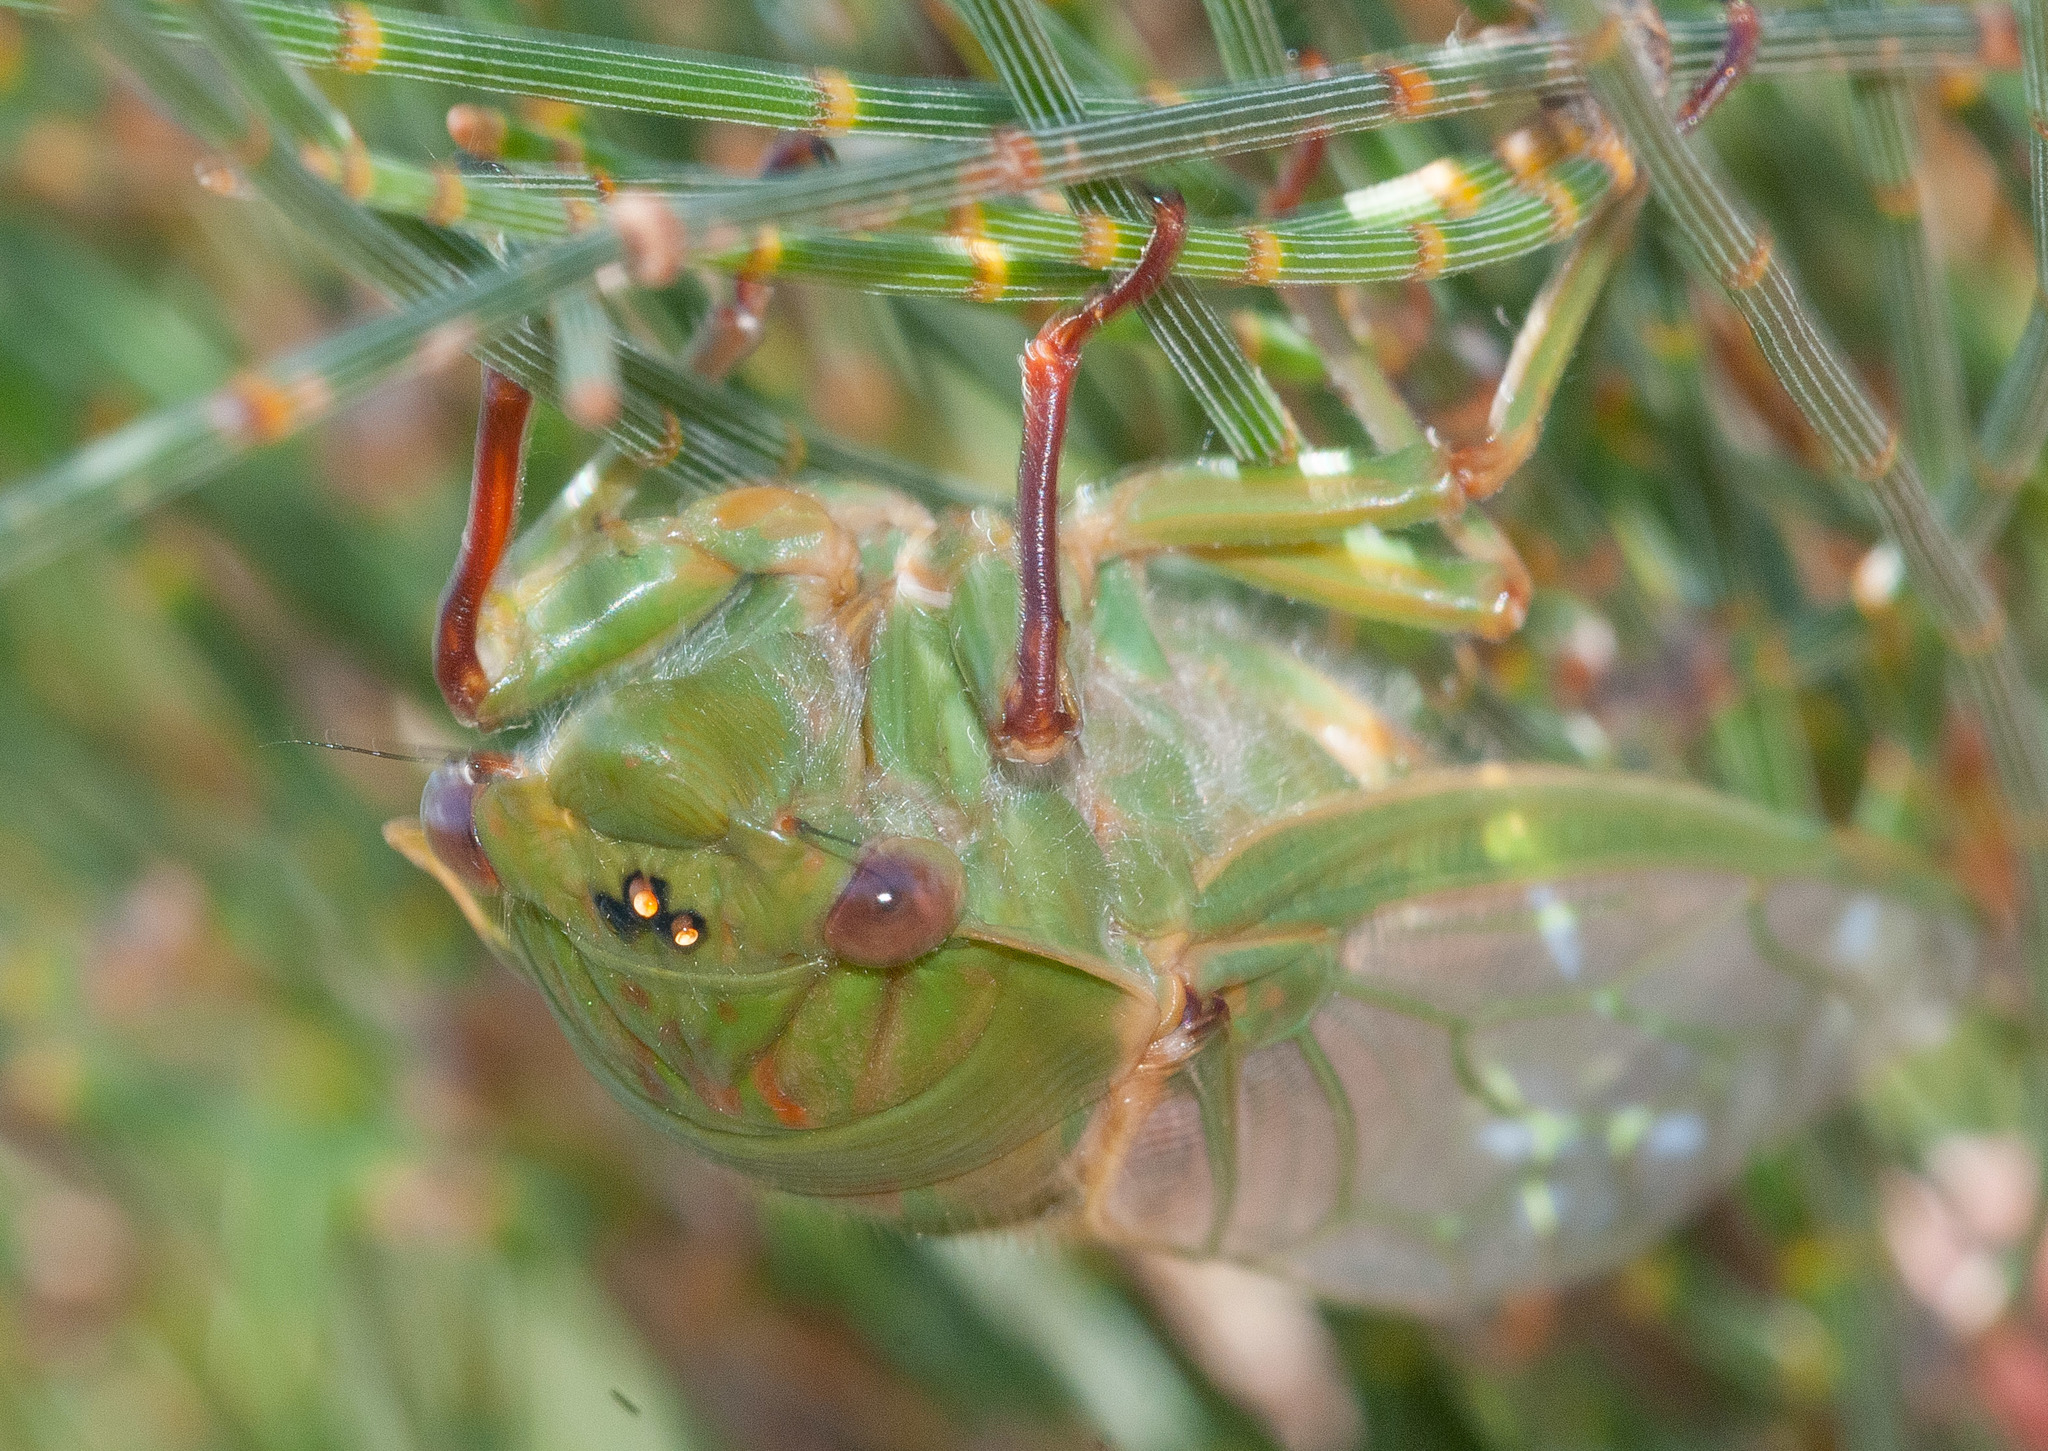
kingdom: Animalia
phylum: Arthropoda
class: Insecta
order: Hemiptera
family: Cicadidae
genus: Cyclochila
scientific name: Cyclochila australasiae
